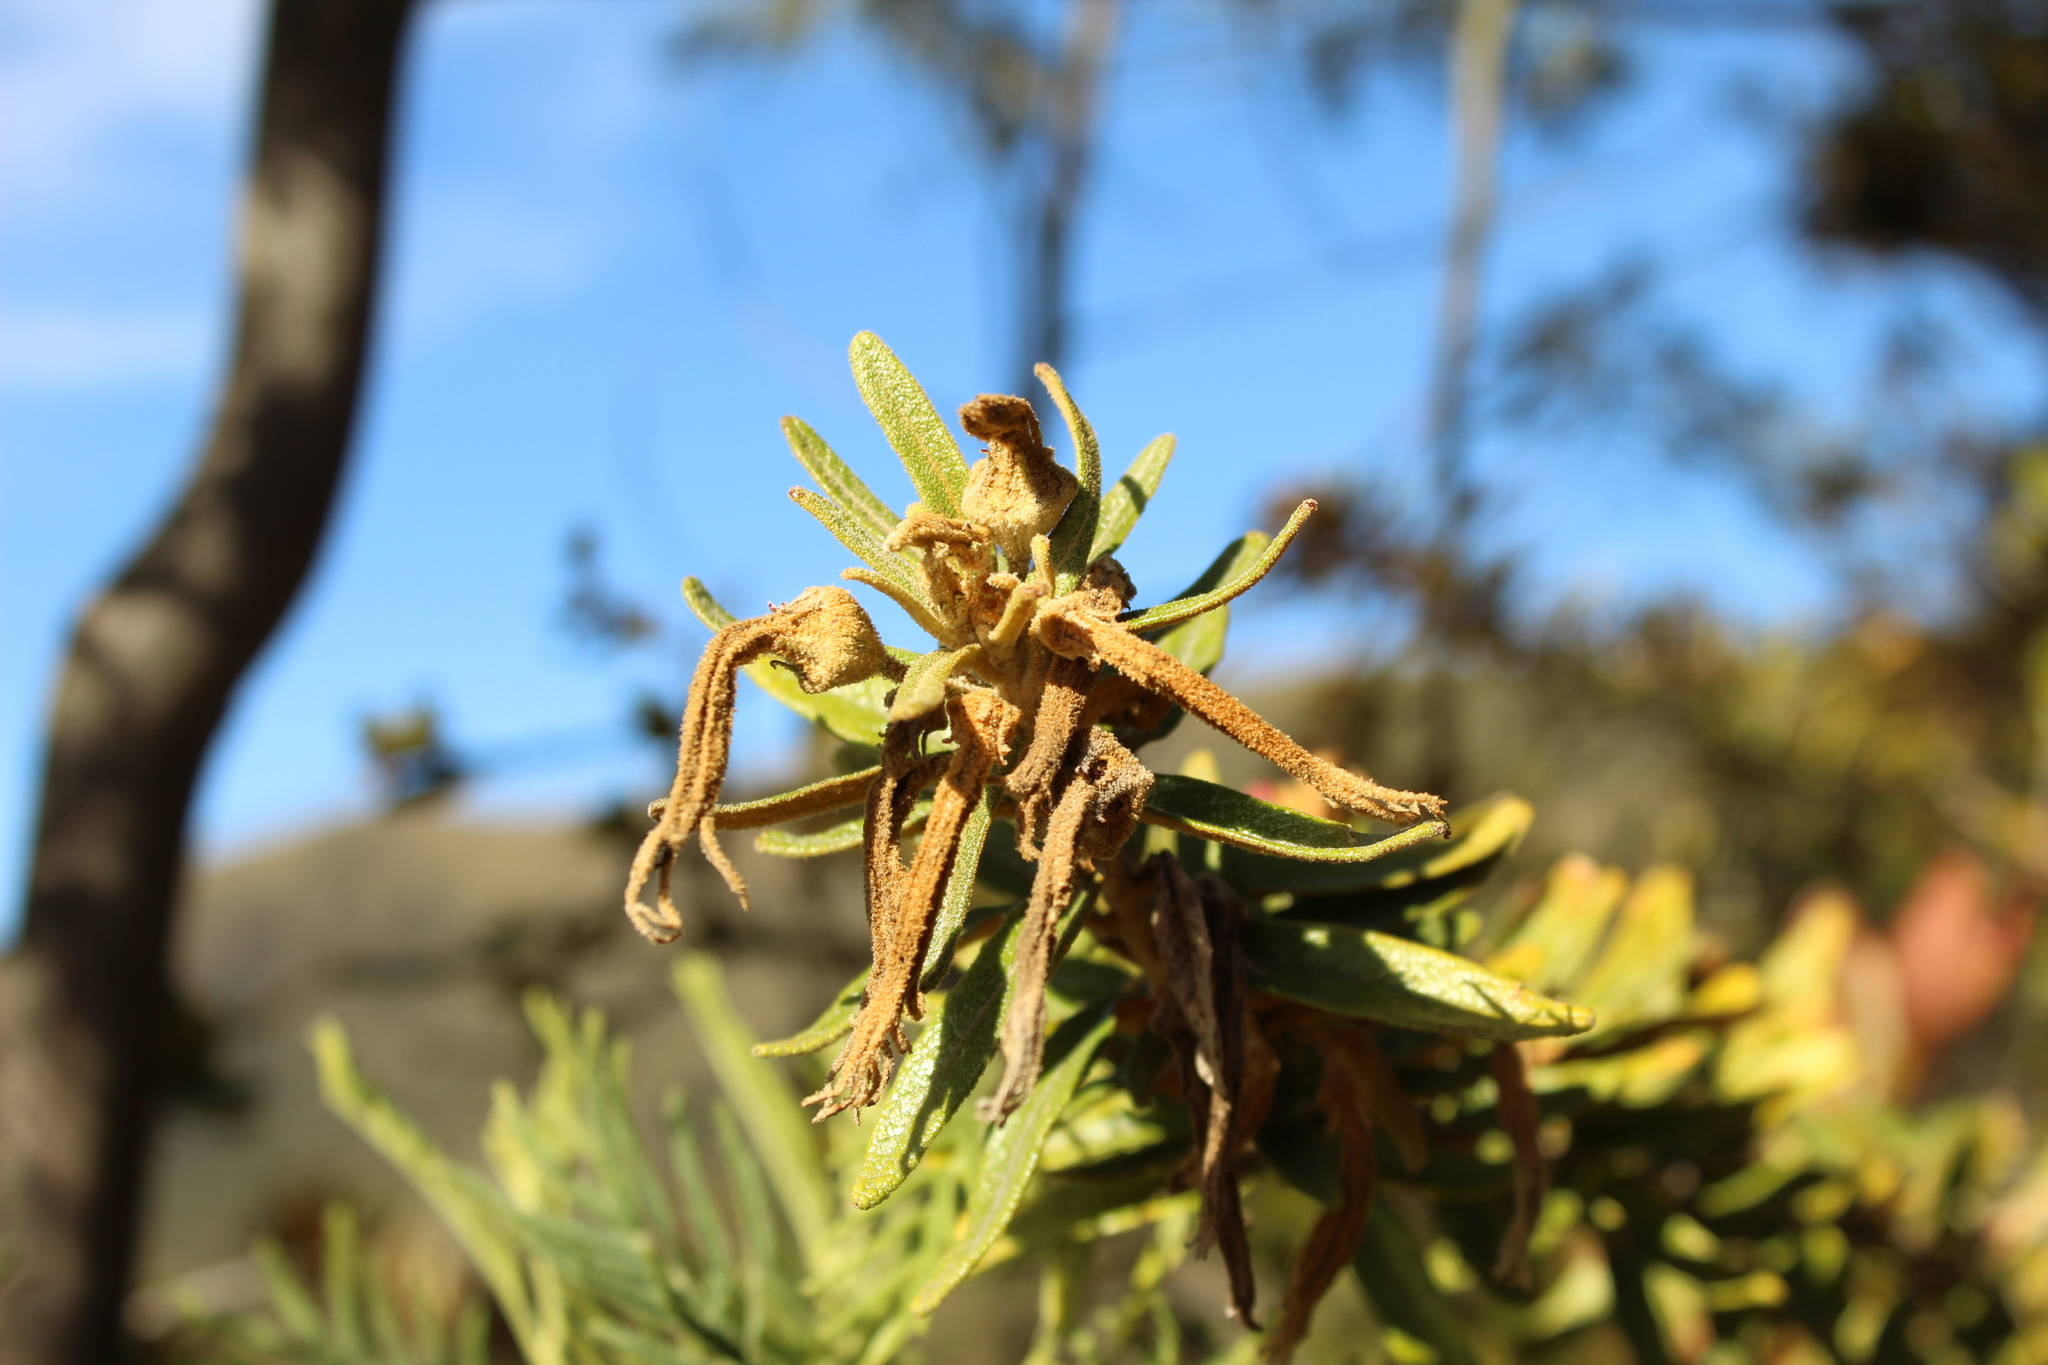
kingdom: Plantae
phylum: Tracheophyta
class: Magnoliopsida
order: Asterales
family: Campanulaceae
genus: Siphocampylus
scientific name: Siphocampylus columnae
